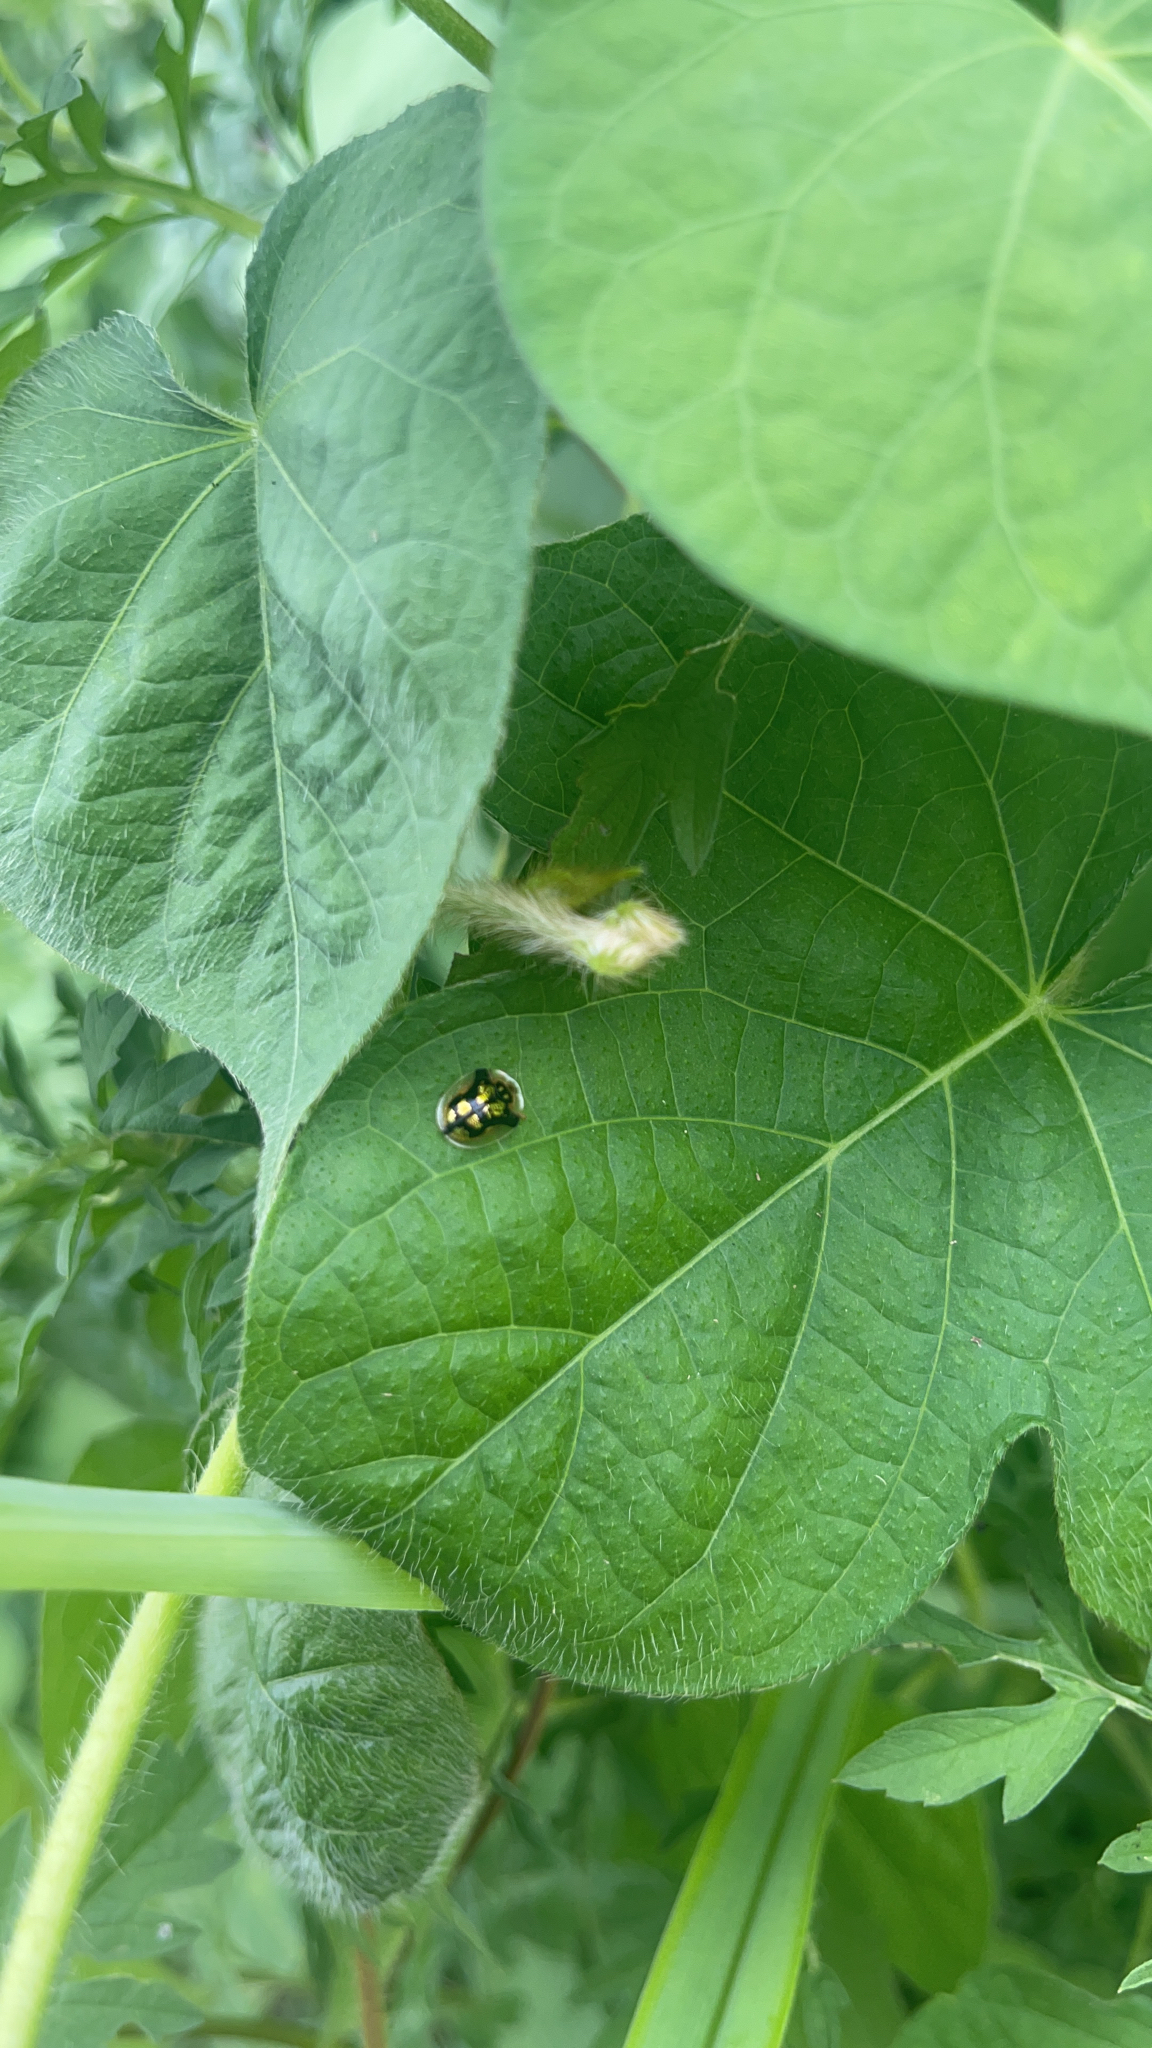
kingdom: Animalia
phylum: Arthropoda
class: Insecta
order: Coleoptera
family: Chrysomelidae
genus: Deloyala
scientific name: Deloyala guttata
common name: Mottled tortoise beetle
